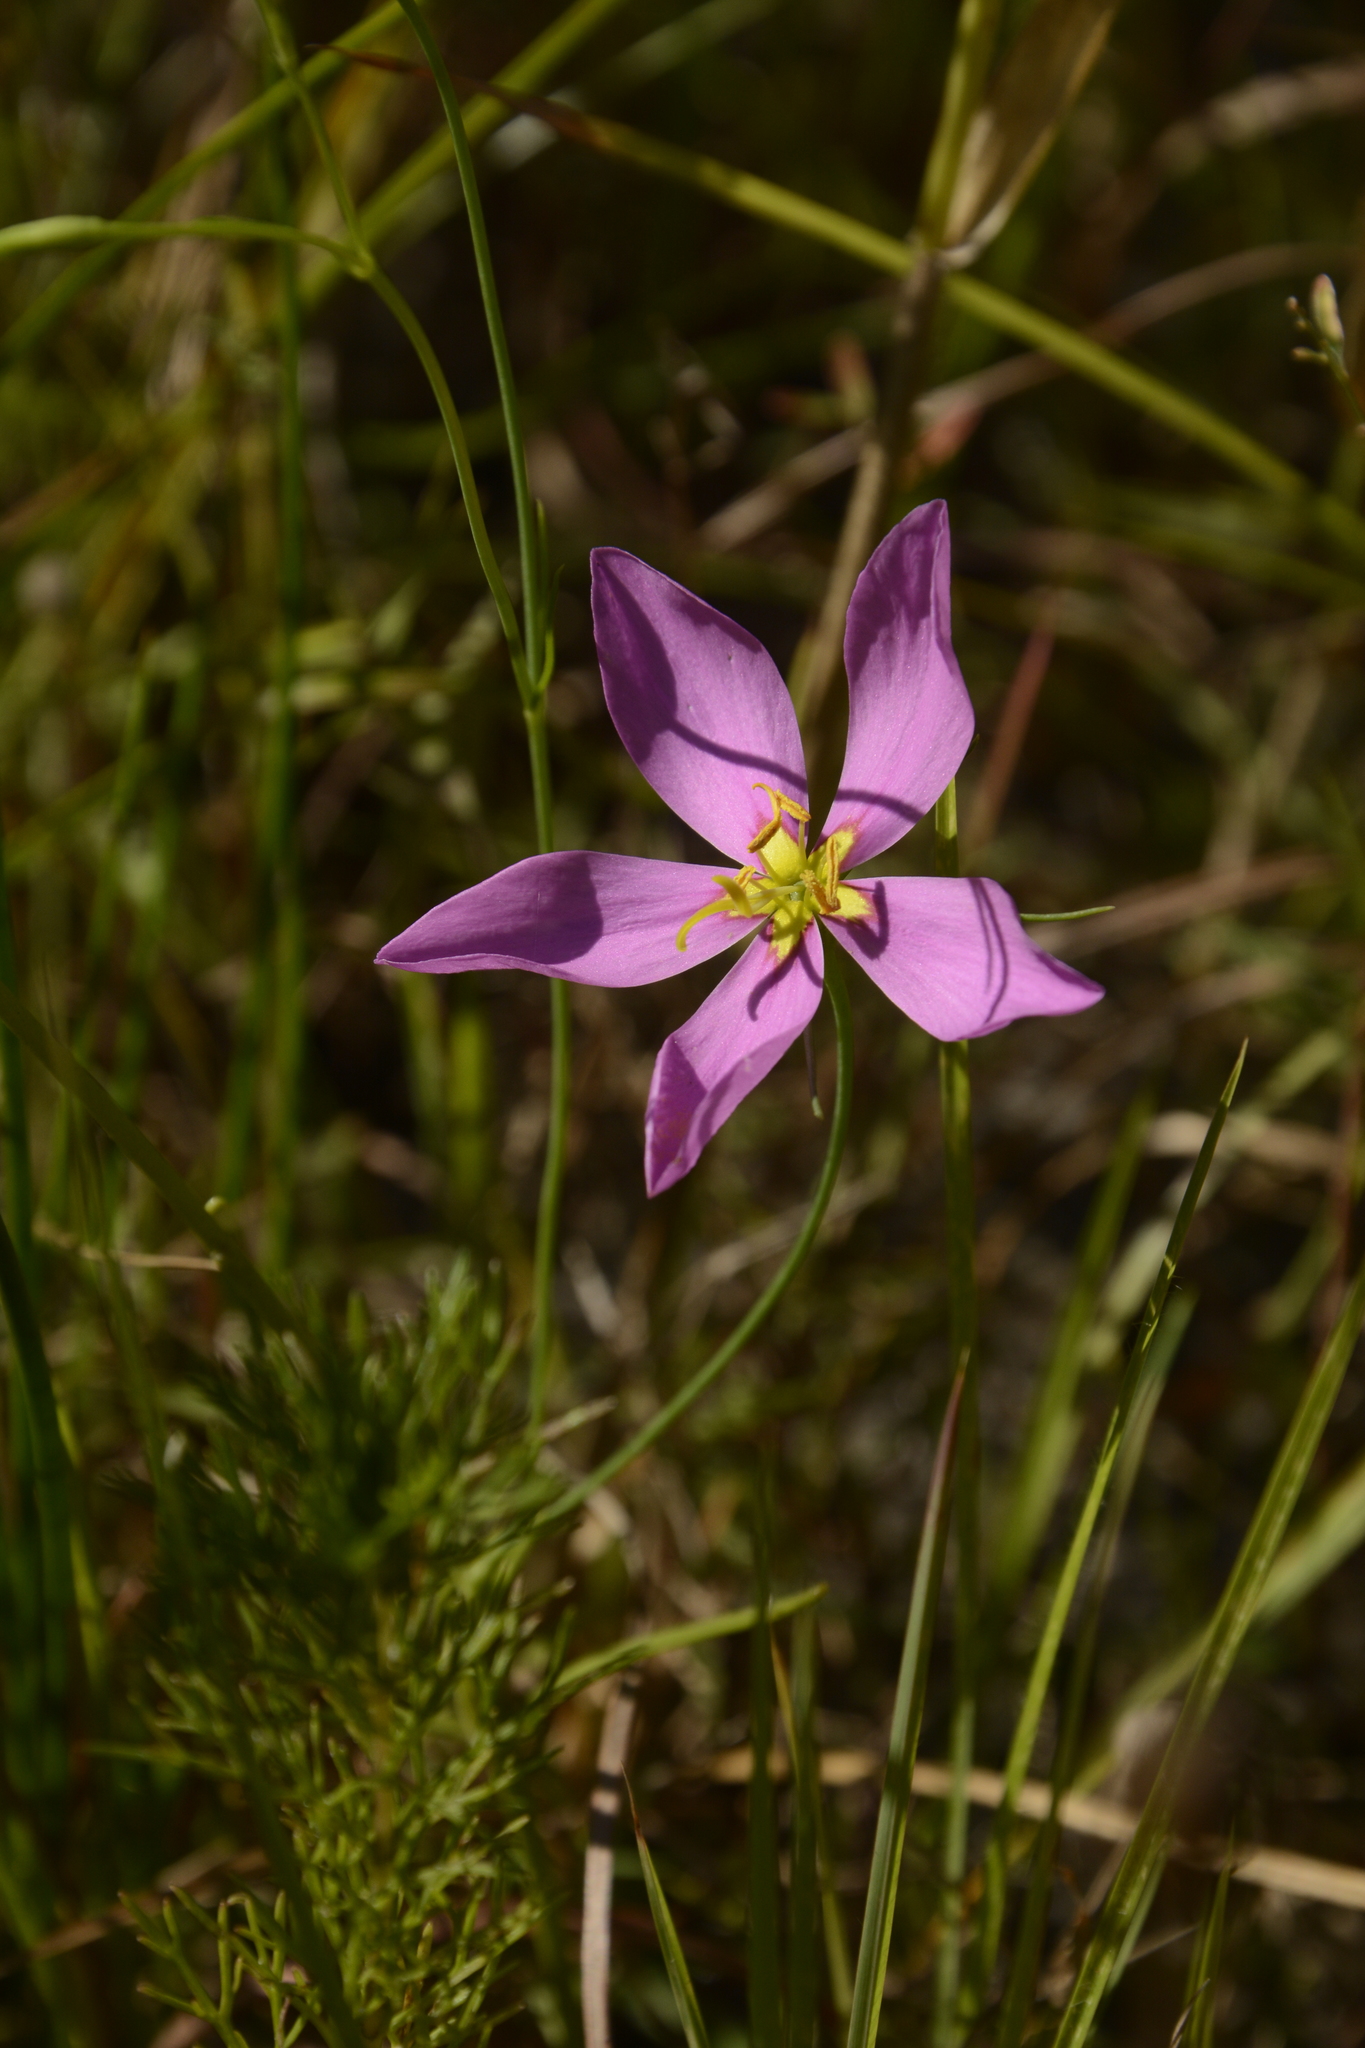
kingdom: Plantae
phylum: Tracheophyta
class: Magnoliopsida
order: Gentianales
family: Gentianaceae
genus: Sabatia
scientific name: Sabatia grandiflora
